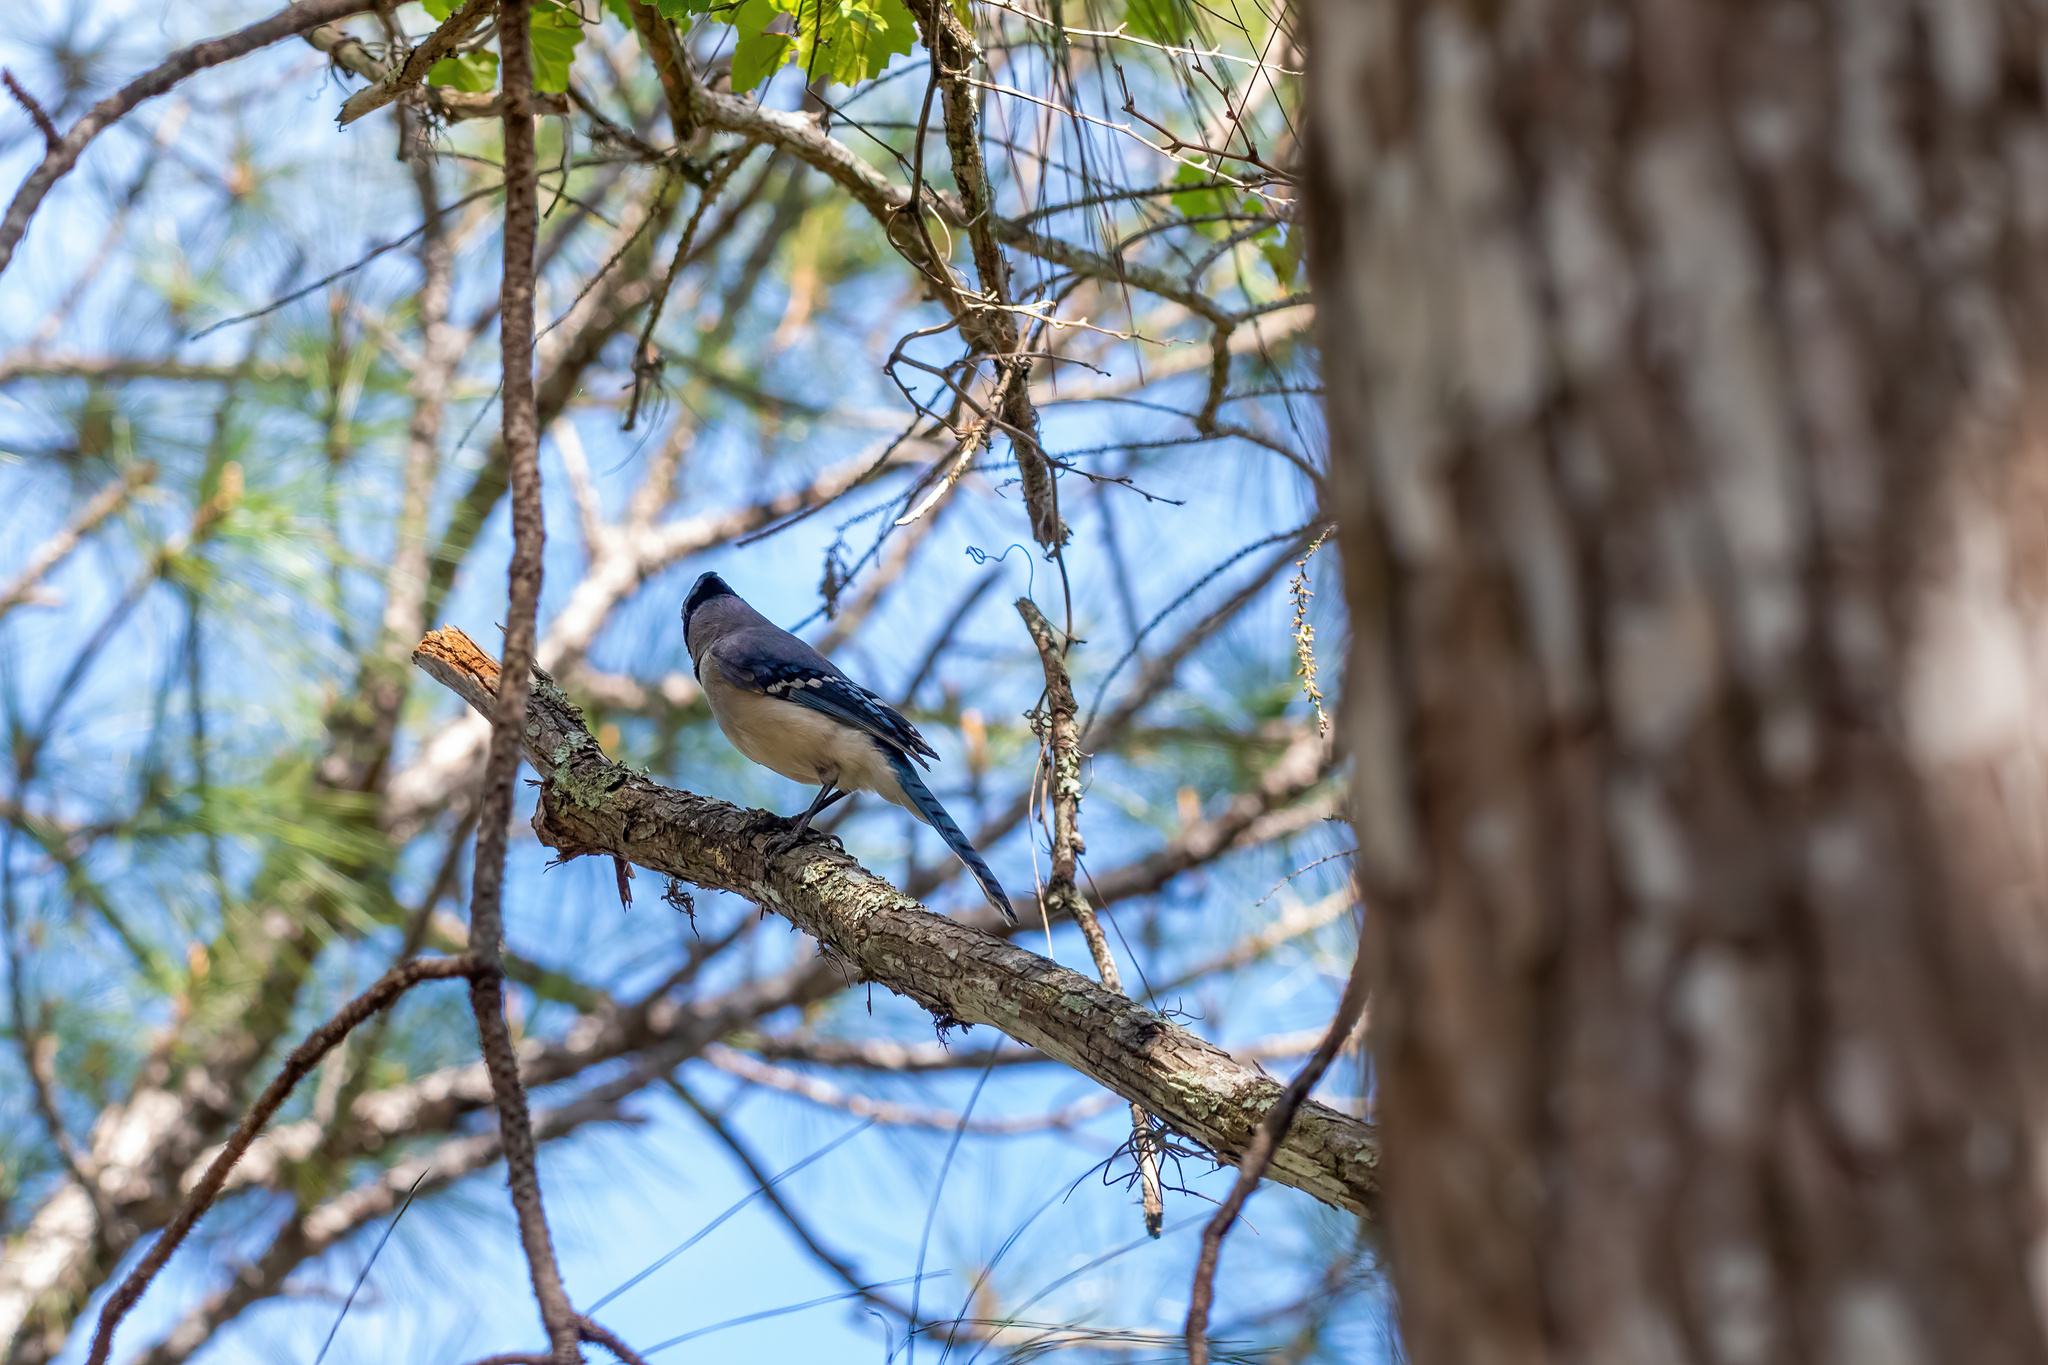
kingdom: Animalia
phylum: Chordata
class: Aves
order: Passeriformes
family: Corvidae
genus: Cyanocitta
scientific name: Cyanocitta cristata
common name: Blue jay
